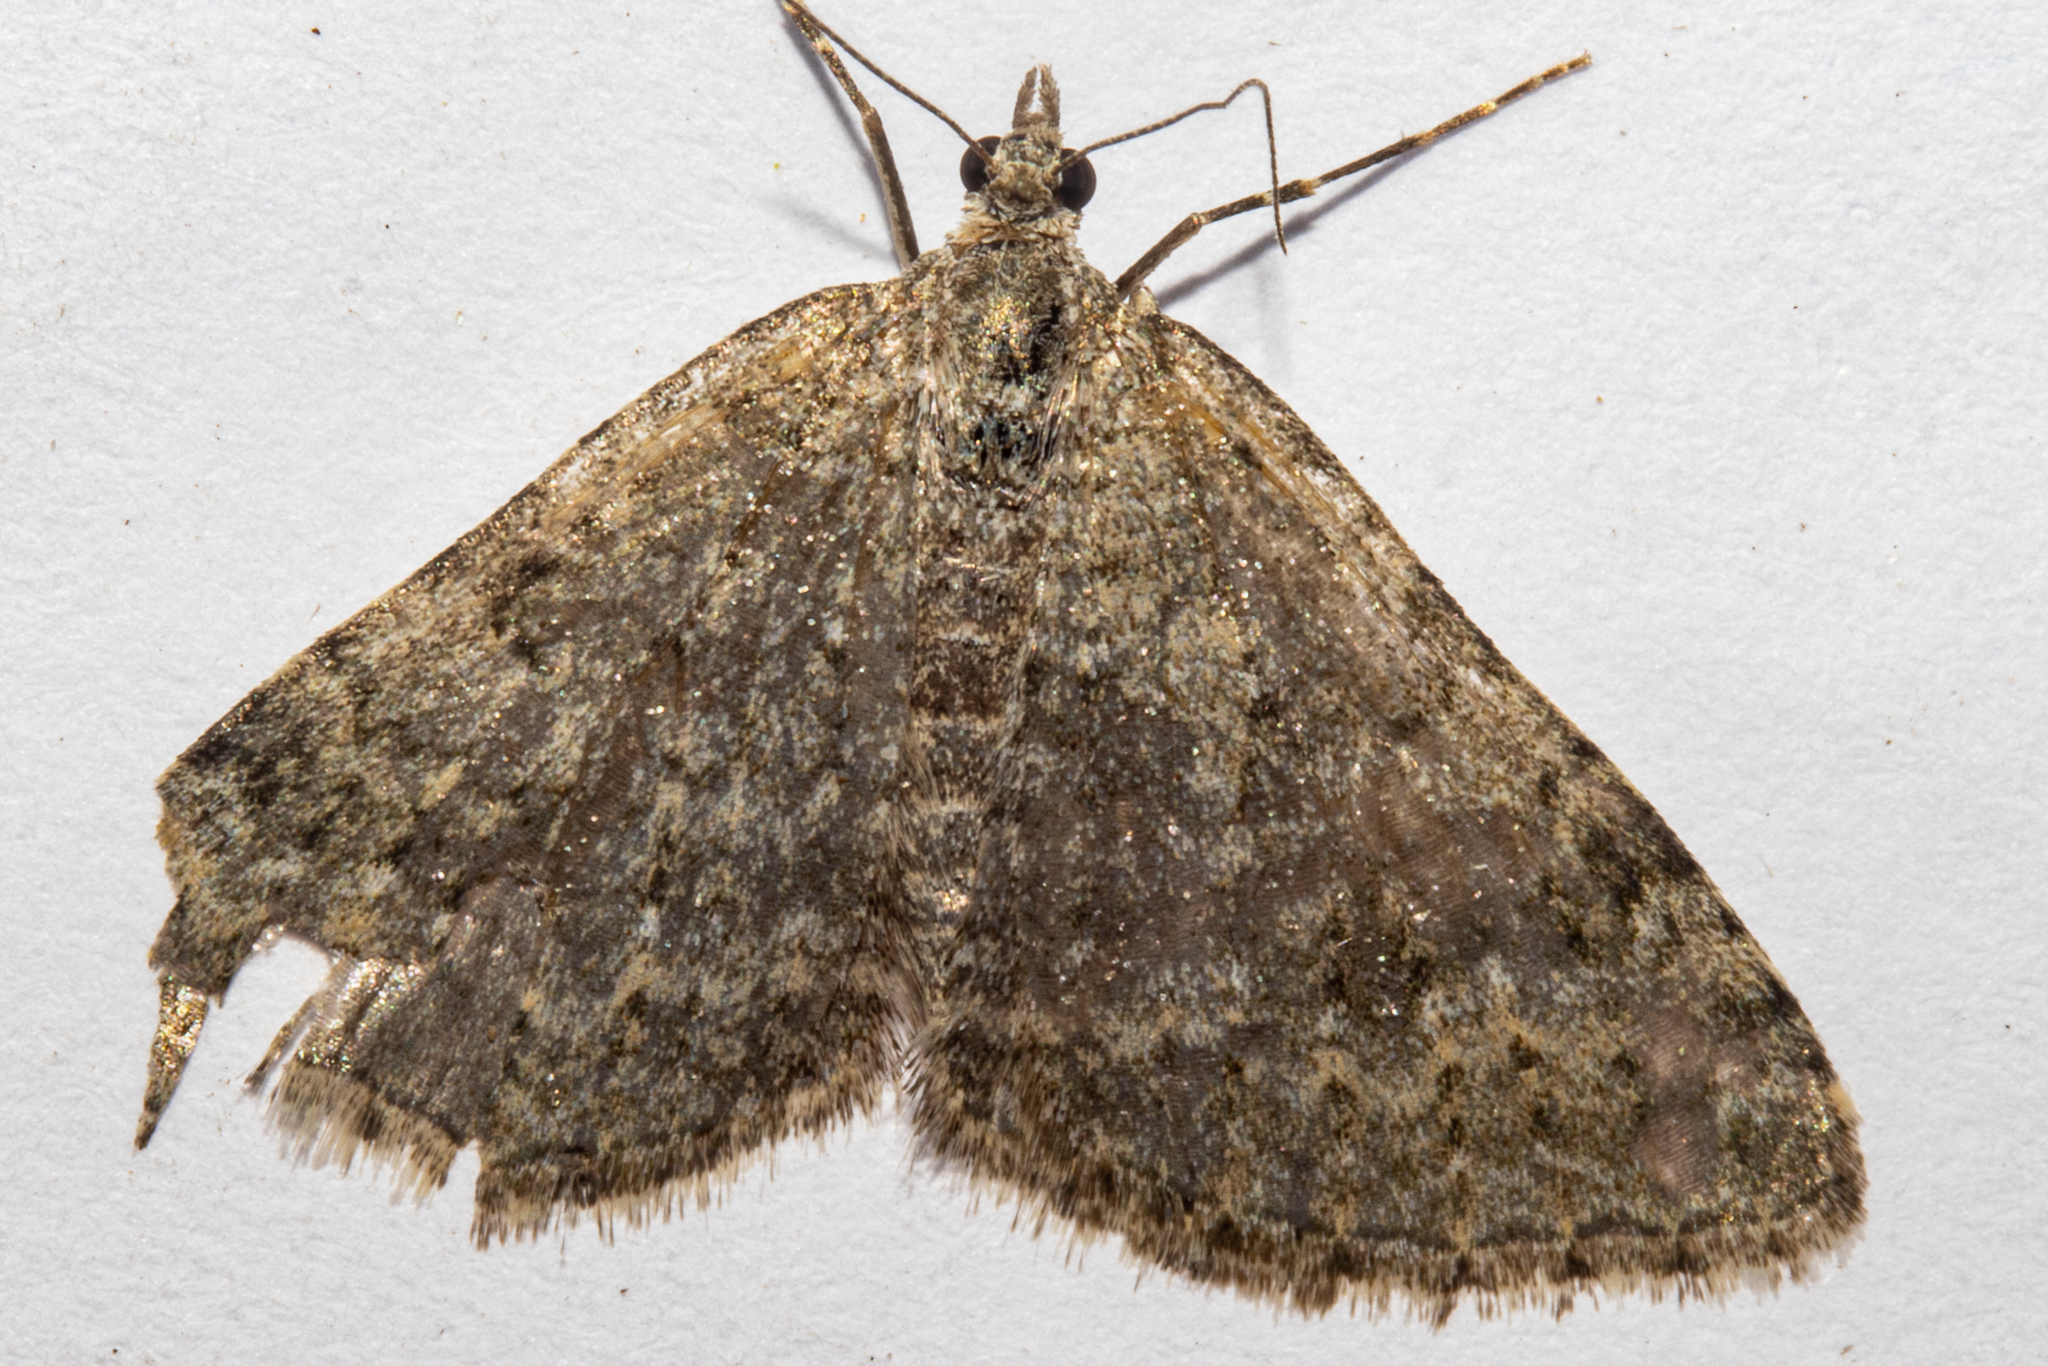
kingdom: Animalia
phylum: Arthropoda
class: Insecta
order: Lepidoptera
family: Geometridae
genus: Helastia
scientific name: Helastia corcularia
